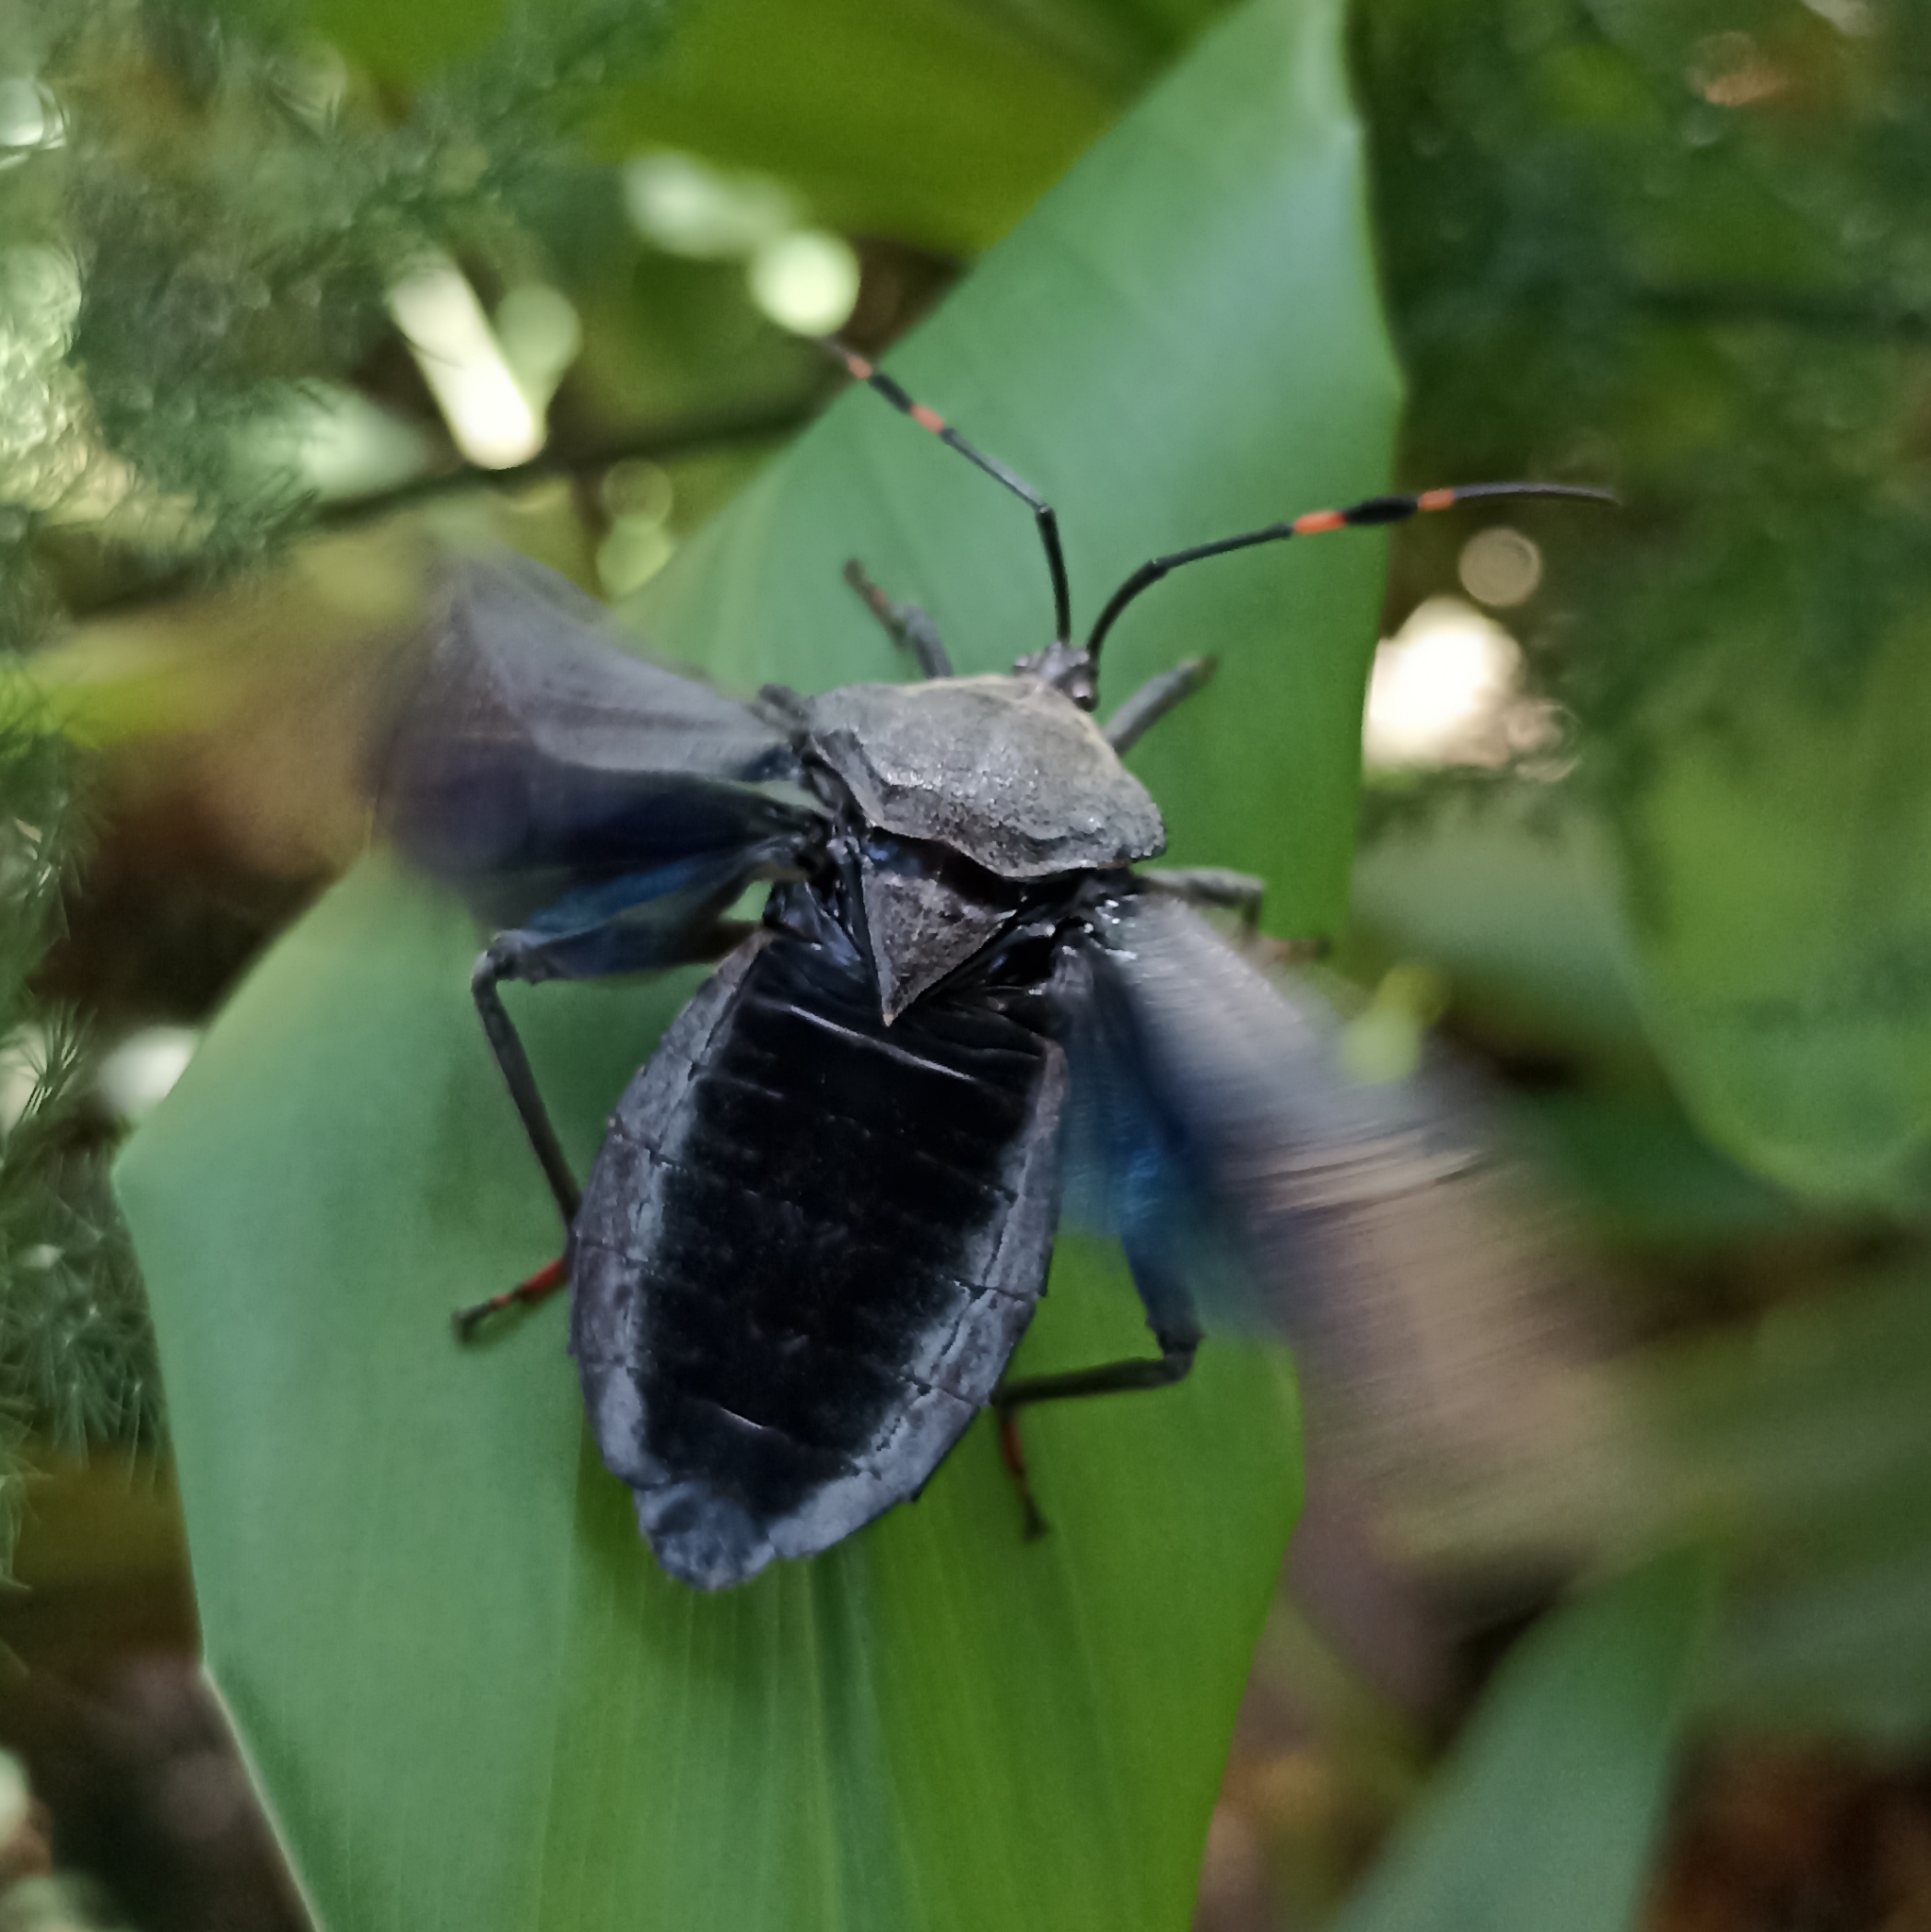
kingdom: Animalia
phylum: Arthropoda
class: Insecta
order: Hemiptera
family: Coreidae
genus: Pachylis
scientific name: Pachylis nervosus
